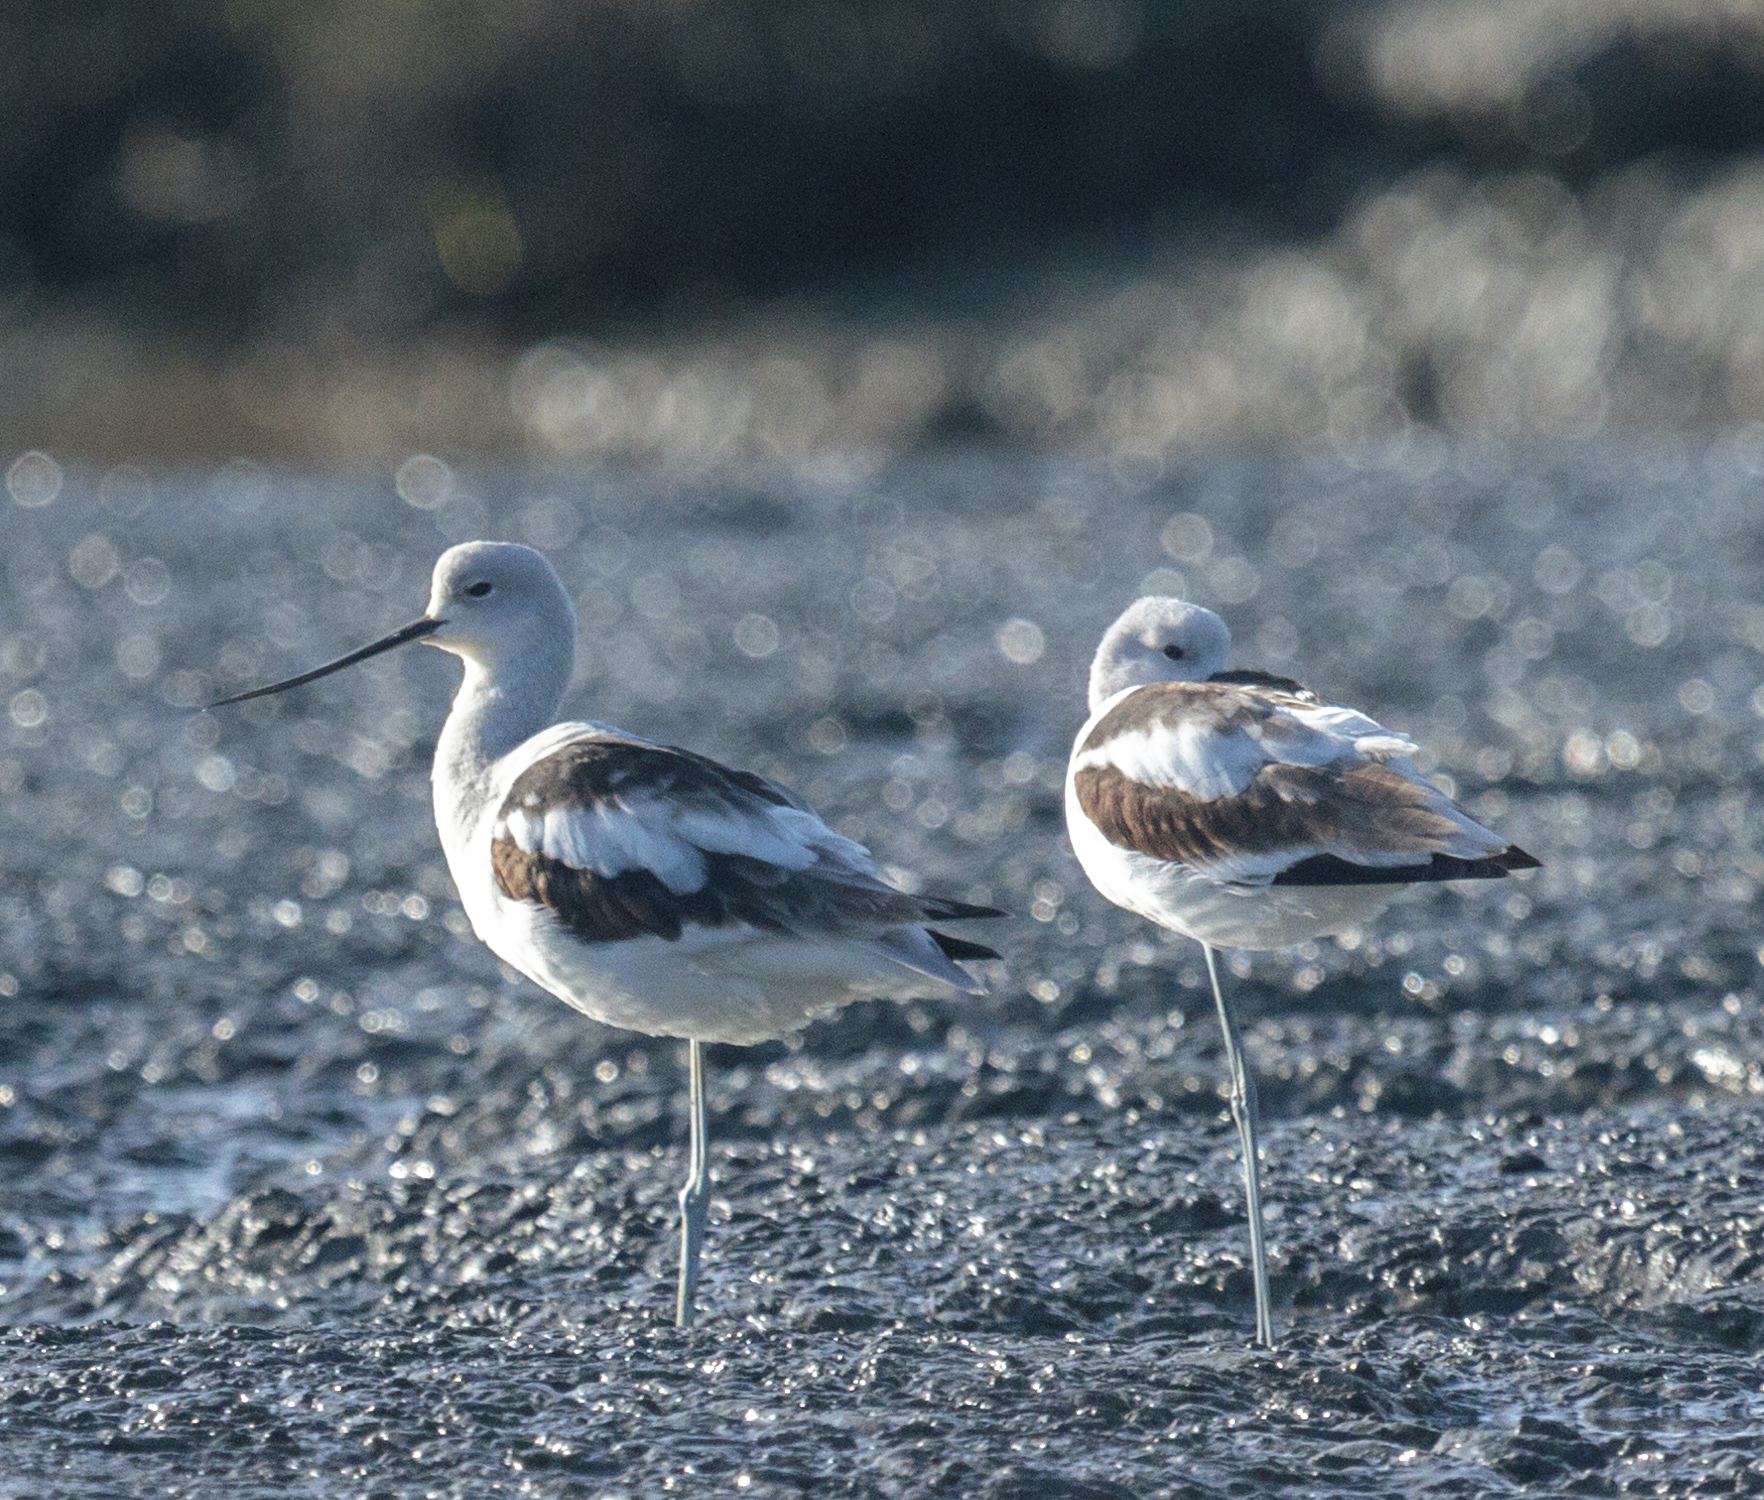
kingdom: Animalia
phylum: Chordata
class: Aves
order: Charadriiformes
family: Recurvirostridae
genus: Recurvirostra
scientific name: Recurvirostra americana
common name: American avocet
